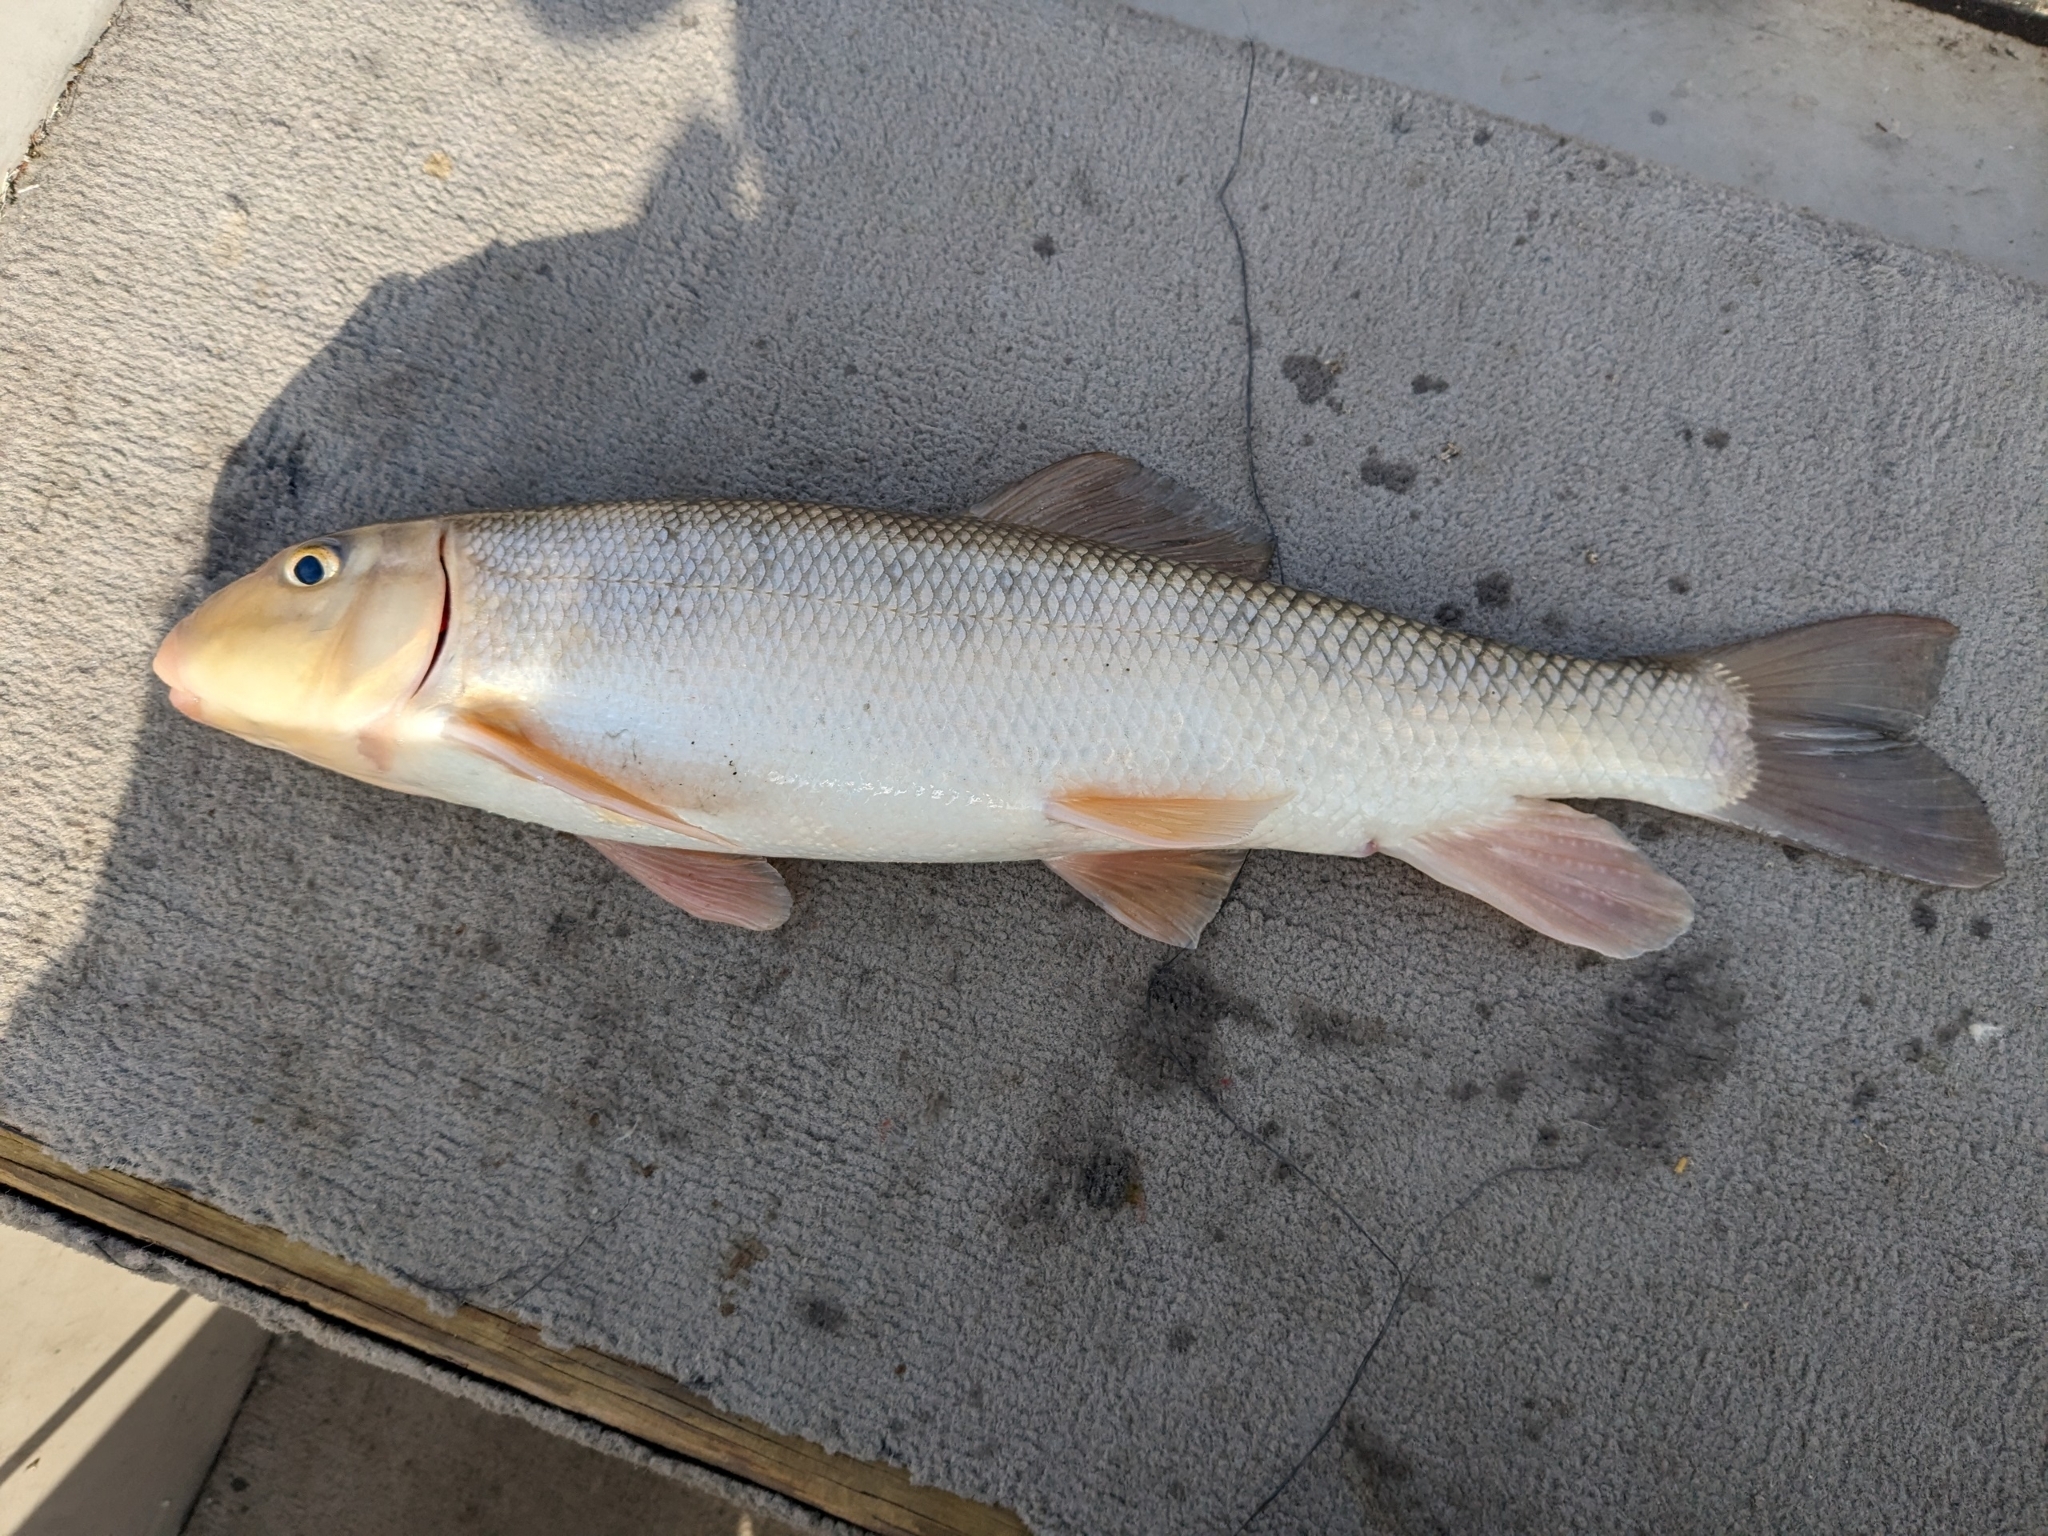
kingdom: Animalia
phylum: Chordata
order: Cypriniformes
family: Catostomidae
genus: Catostomus
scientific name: Catostomus commersonii
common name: White sucker
